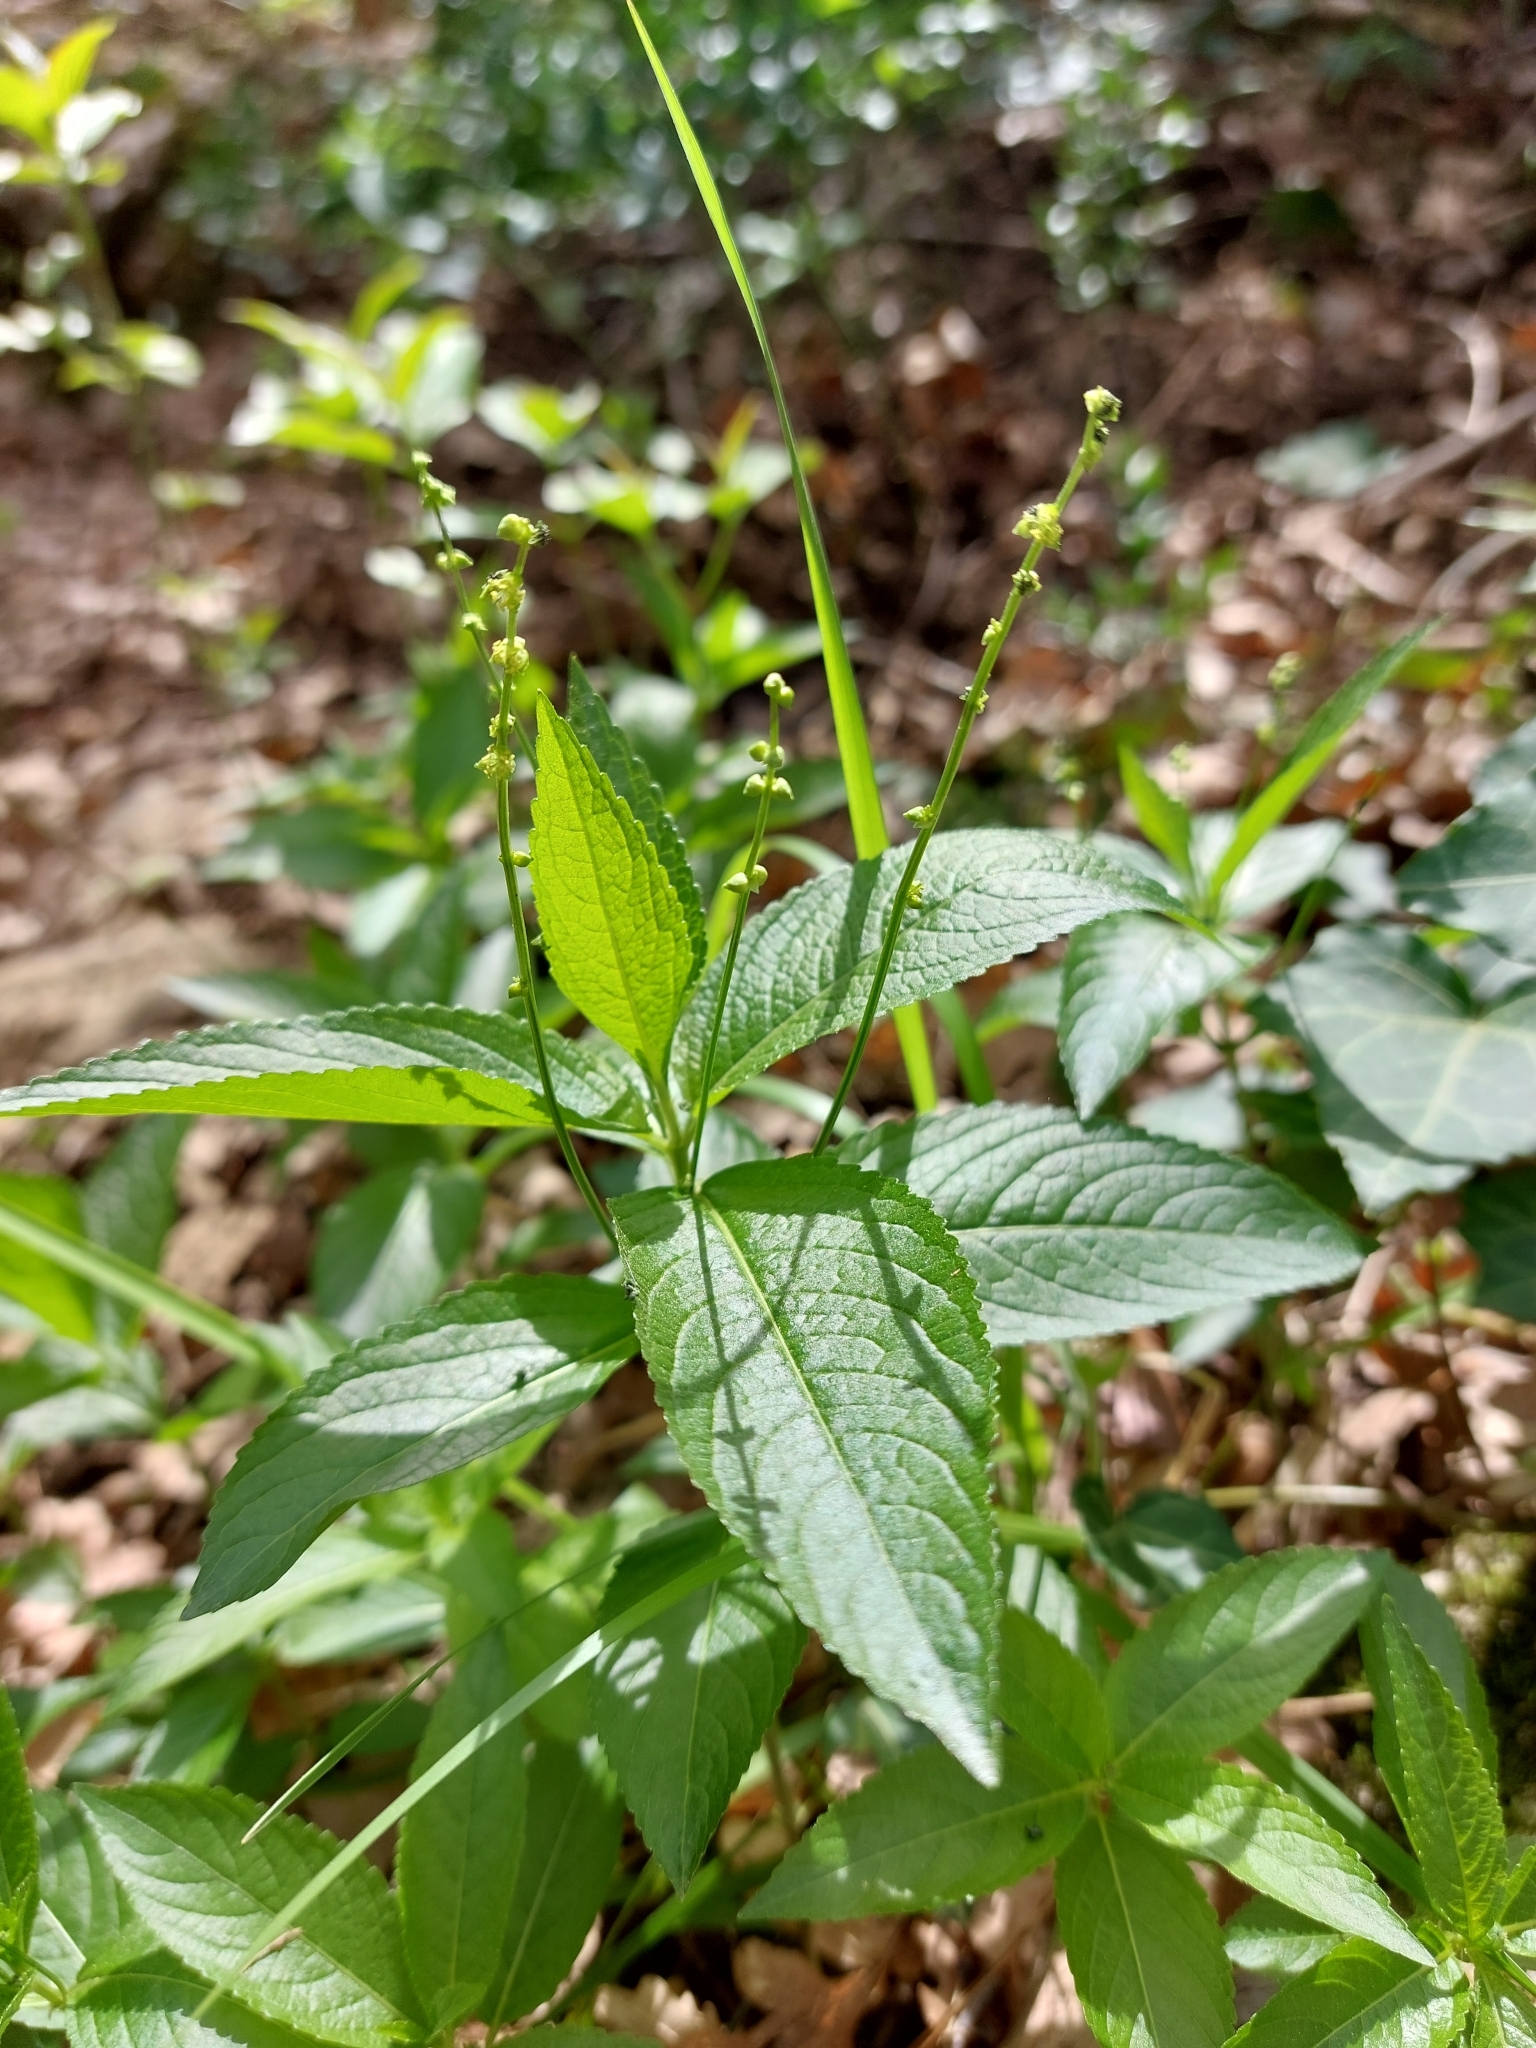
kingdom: Plantae
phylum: Tracheophyta
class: Magnoliopsida
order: Malpighiales
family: Euphorbiaceae
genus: Mercurialis
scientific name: Mercurialis perennis
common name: Dog mercury
